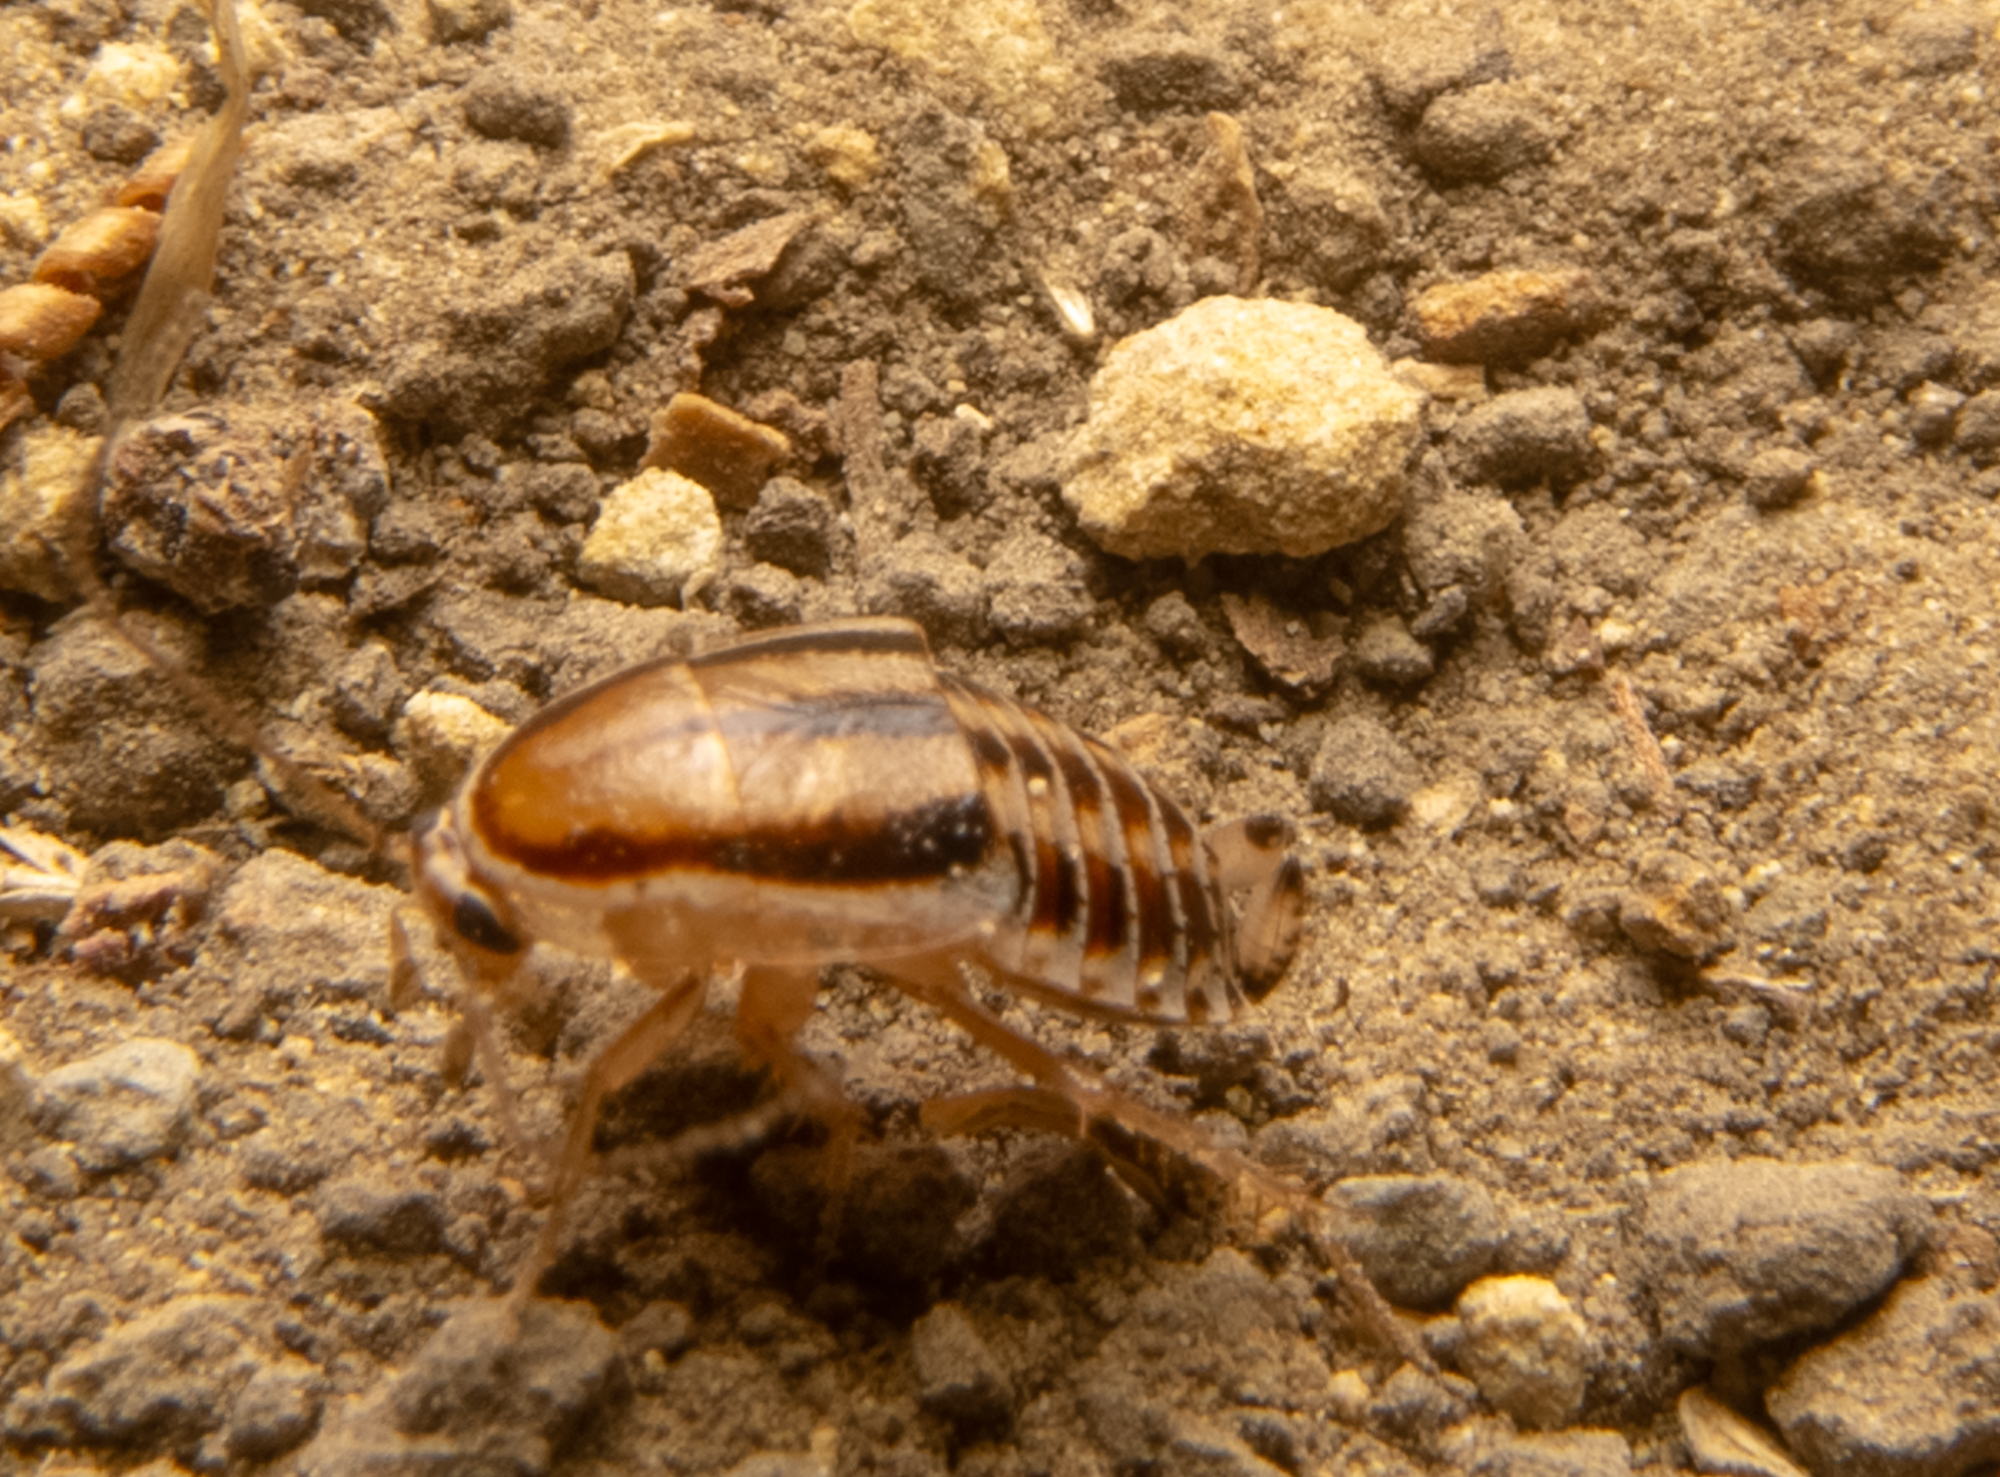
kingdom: Animalia
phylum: Arthropoda
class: Insecta
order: Blattodea
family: Ectobiidae
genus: Luridiblatta
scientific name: Luridiblatta trivittata
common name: Three-lined cockroach
